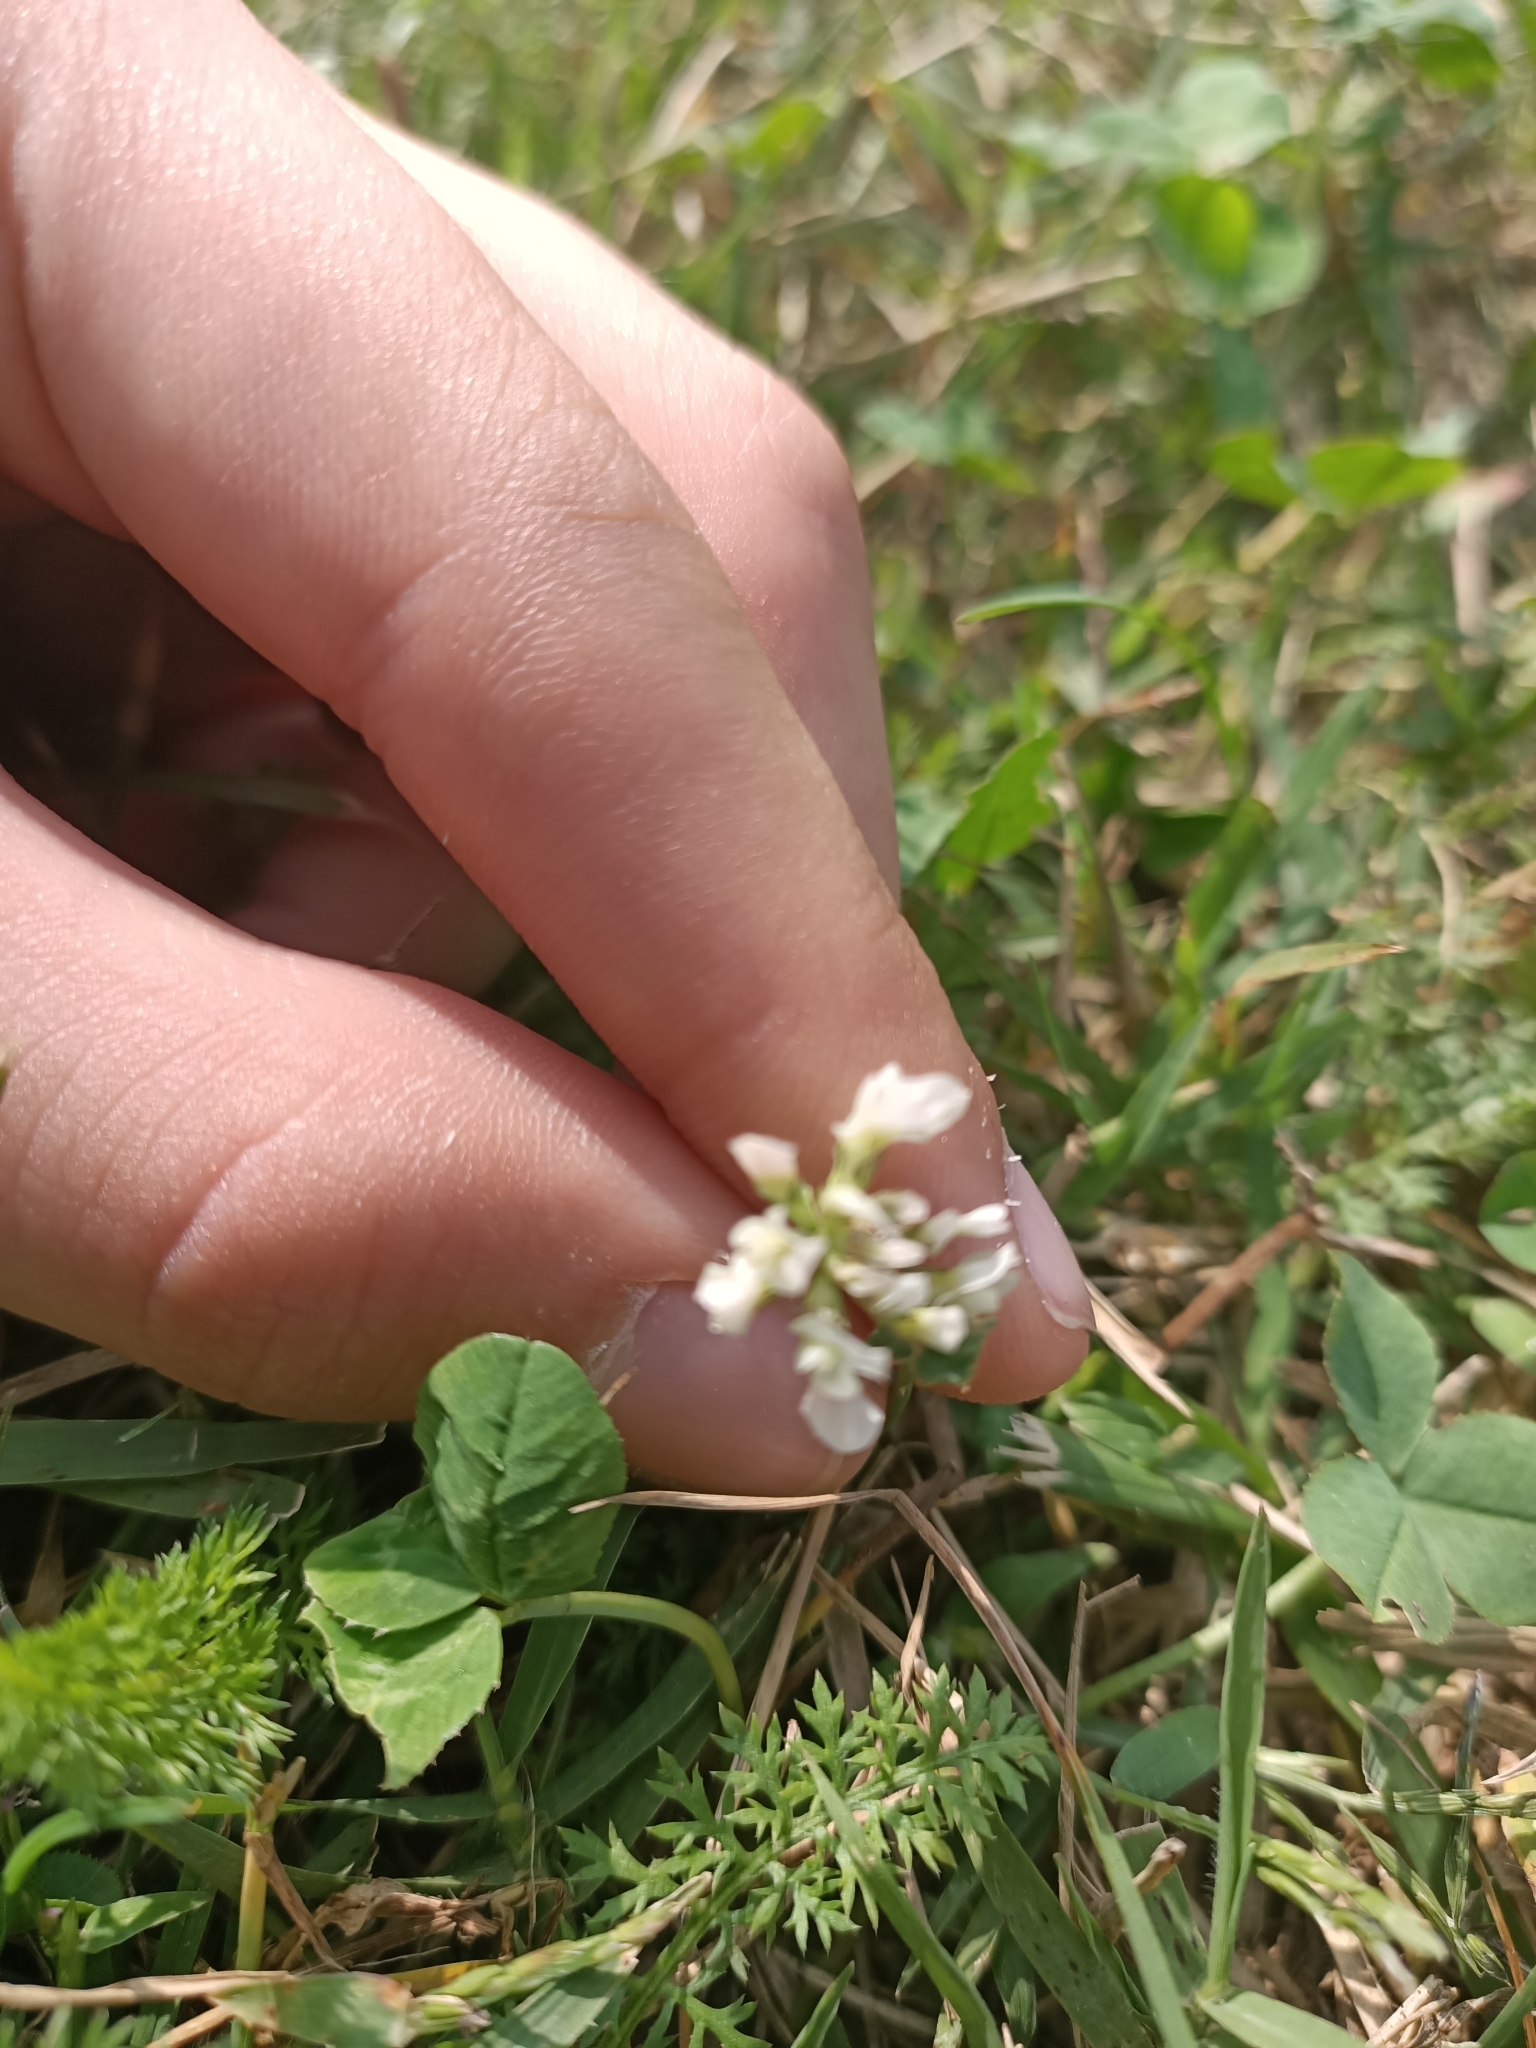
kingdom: Plantae
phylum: Tracheophyta
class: Magnoliopsida
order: Fabales
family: Fabaceae
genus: Trifolium
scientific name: Trifolium repens
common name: White clover
